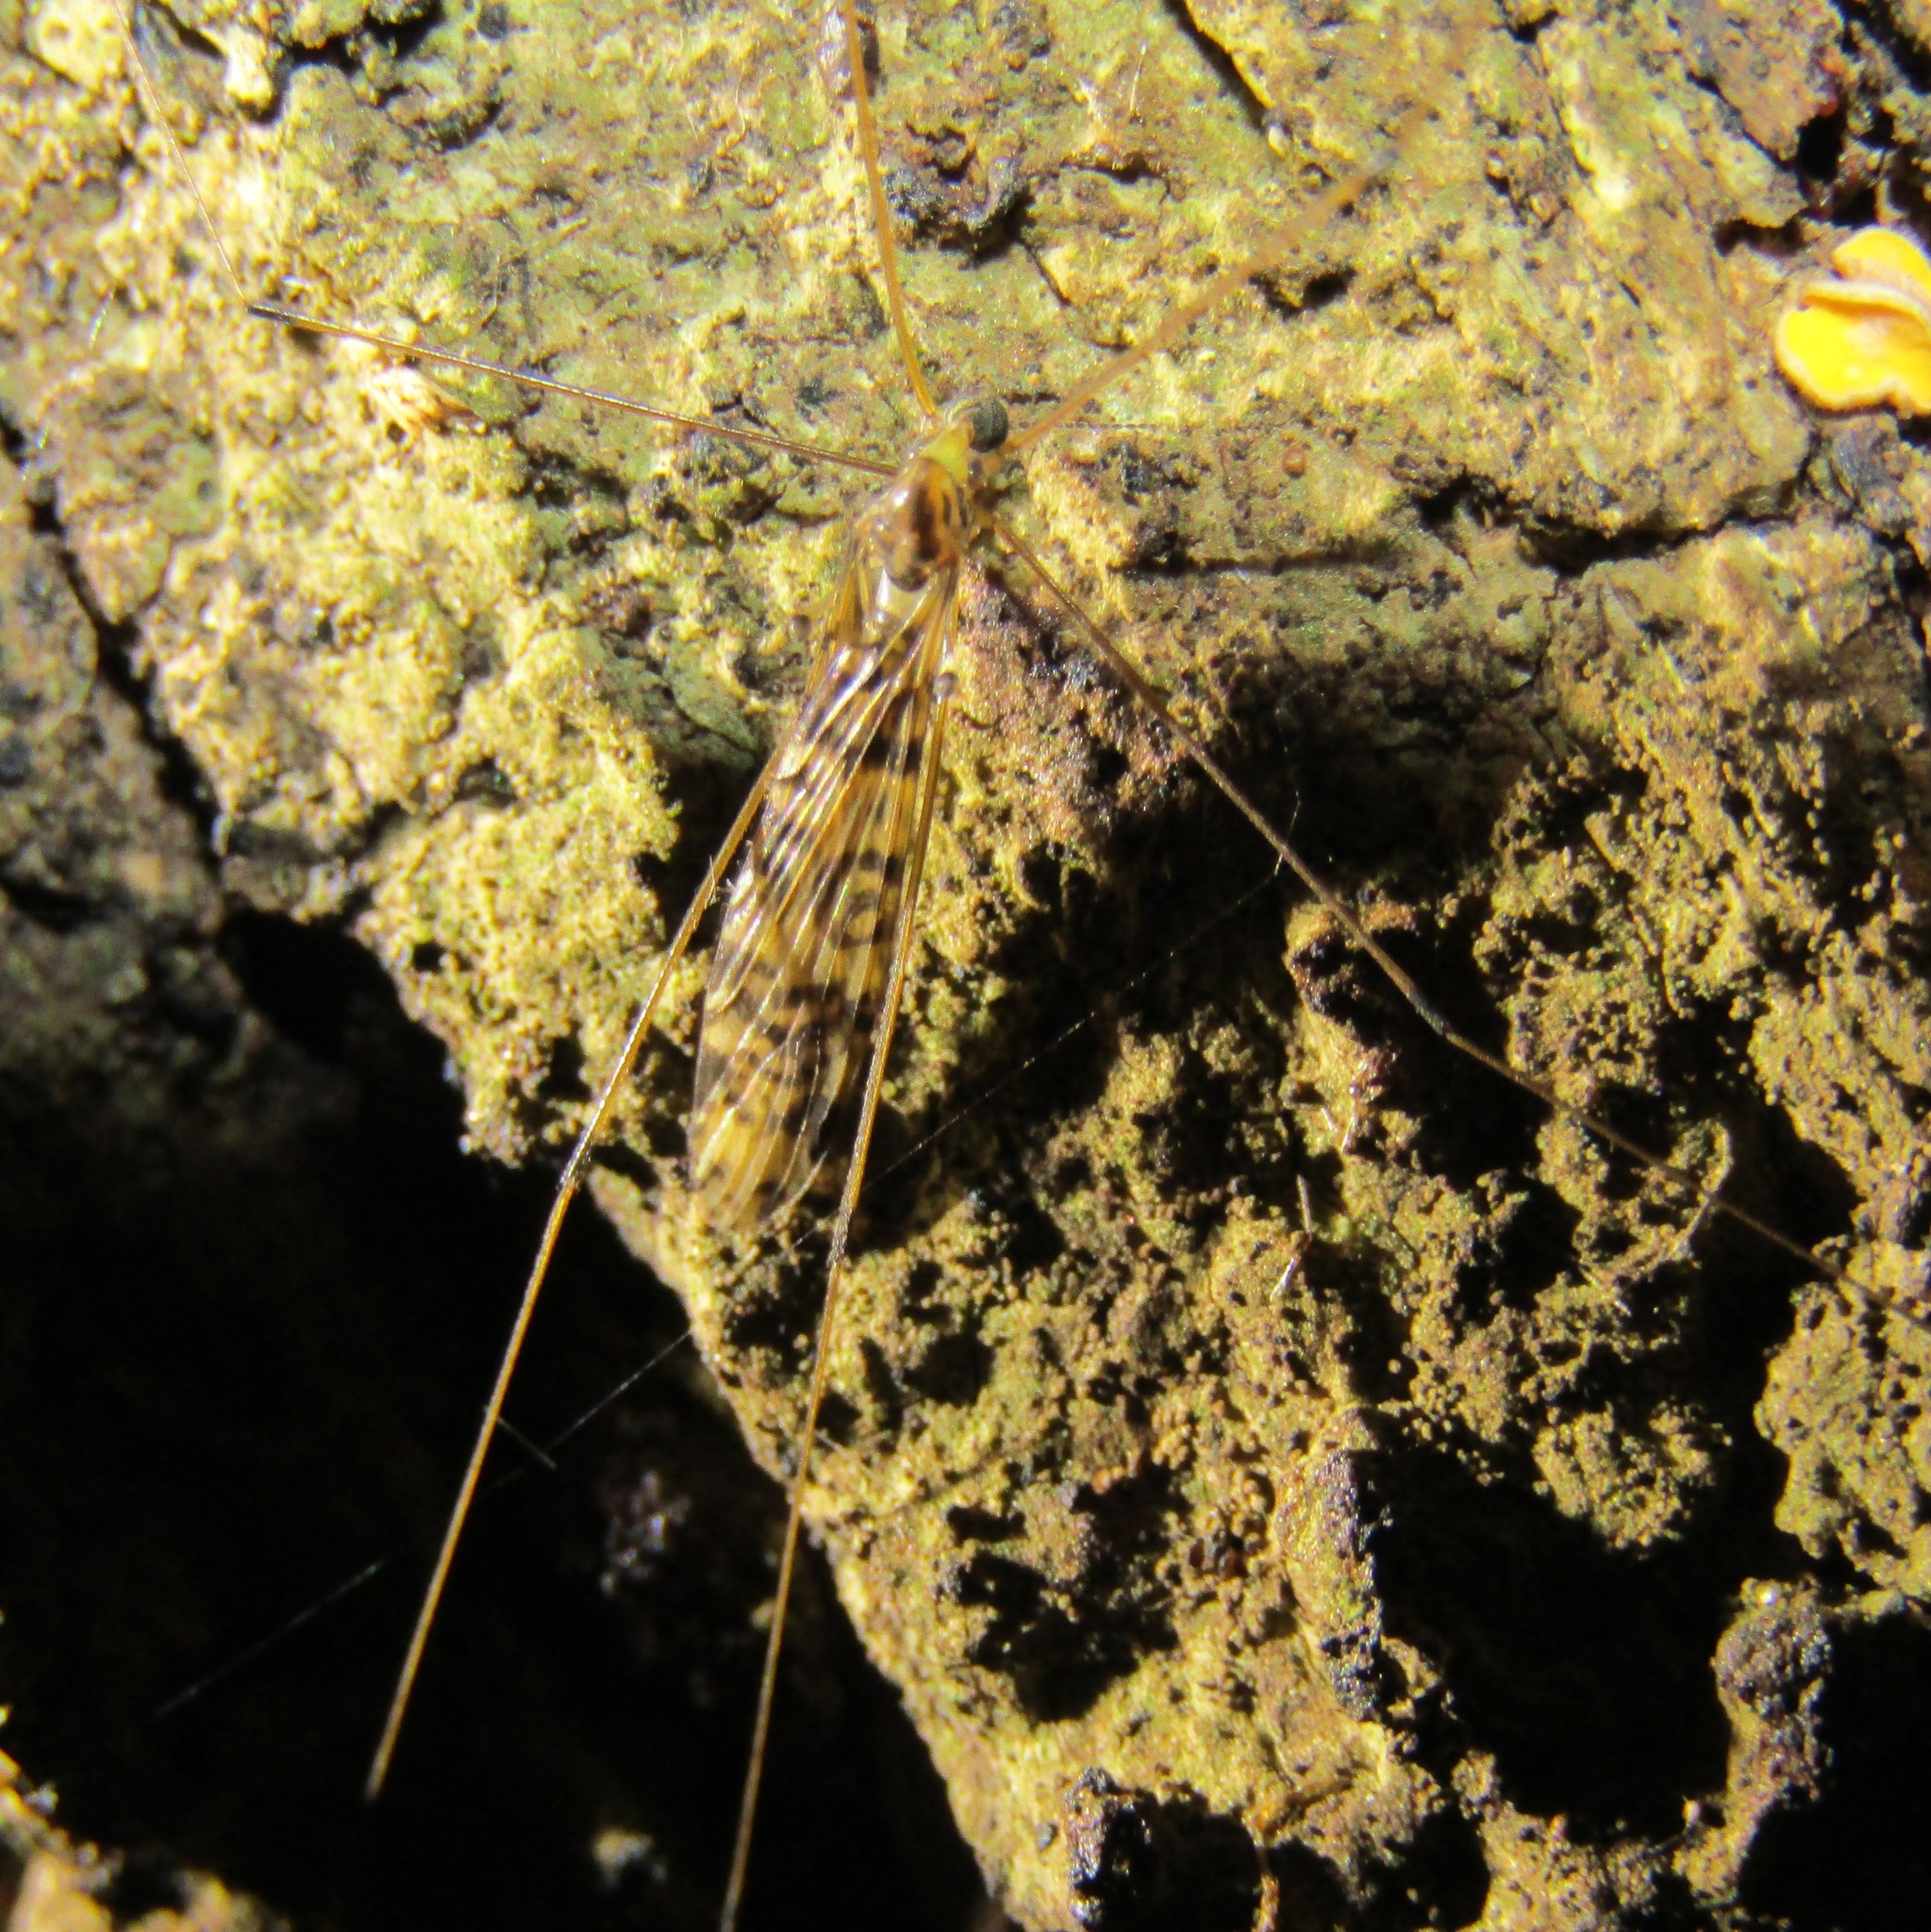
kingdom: Animalia
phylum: Arthropoda
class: Insecta
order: Diptera
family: Limoniidae
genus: Discobola
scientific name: Discobola gibberina
